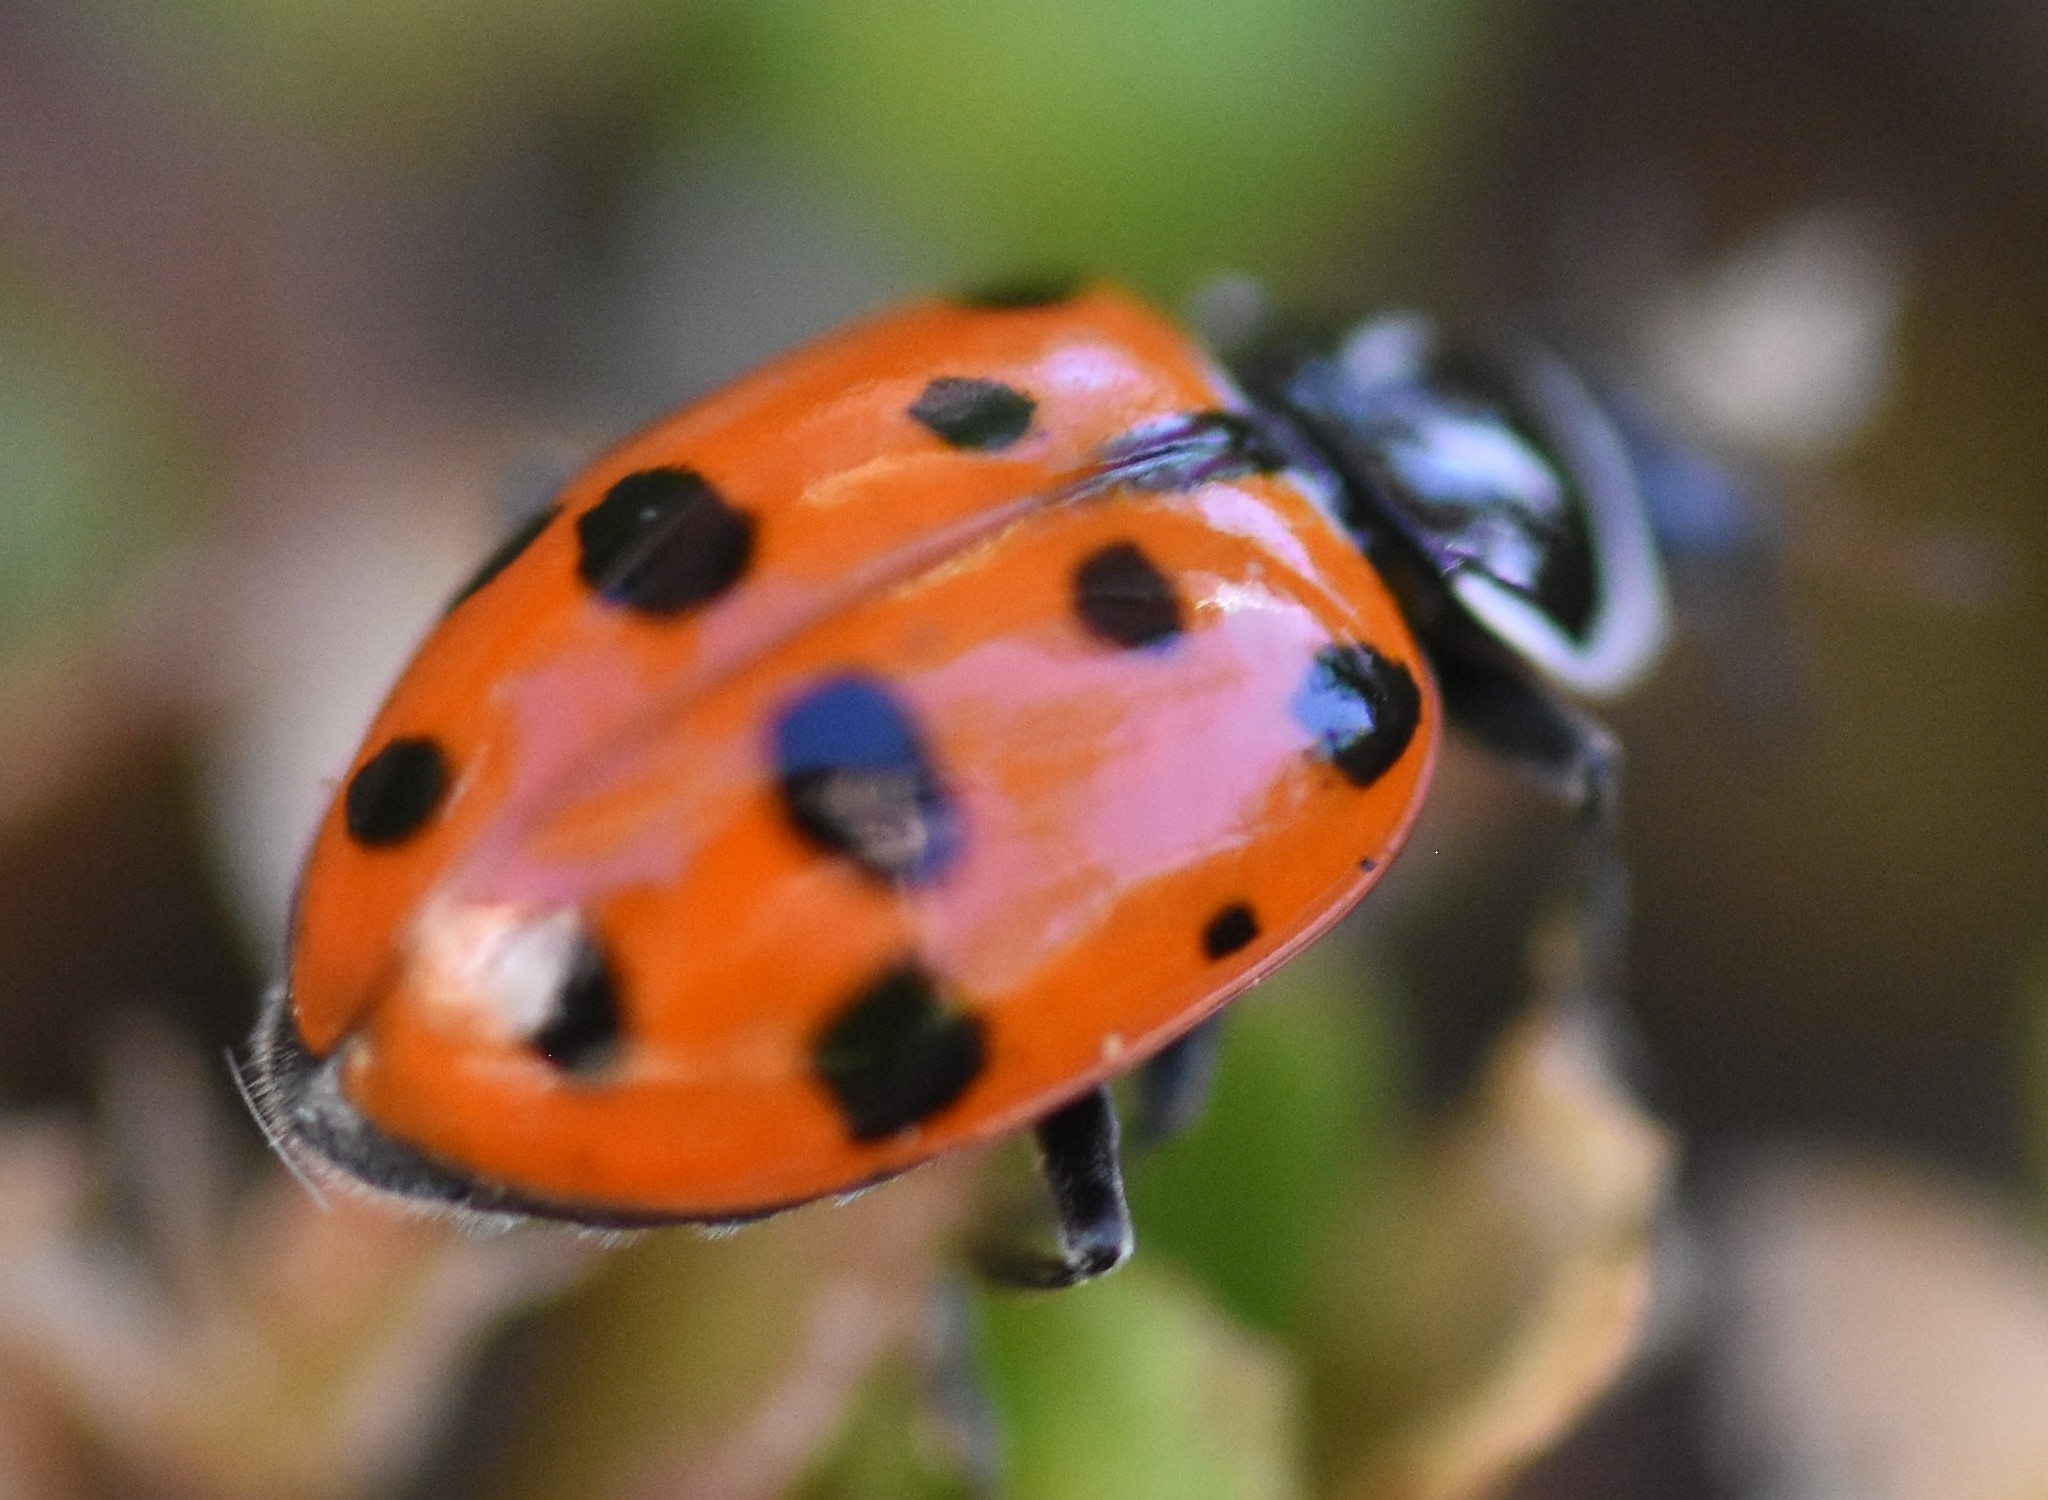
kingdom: Animalia
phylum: Arthropoda
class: Insecta
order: Coleoptera
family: Coccinellidae
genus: Hippodamia
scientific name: Hippodamia convergens
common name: Convergent lady beetle
